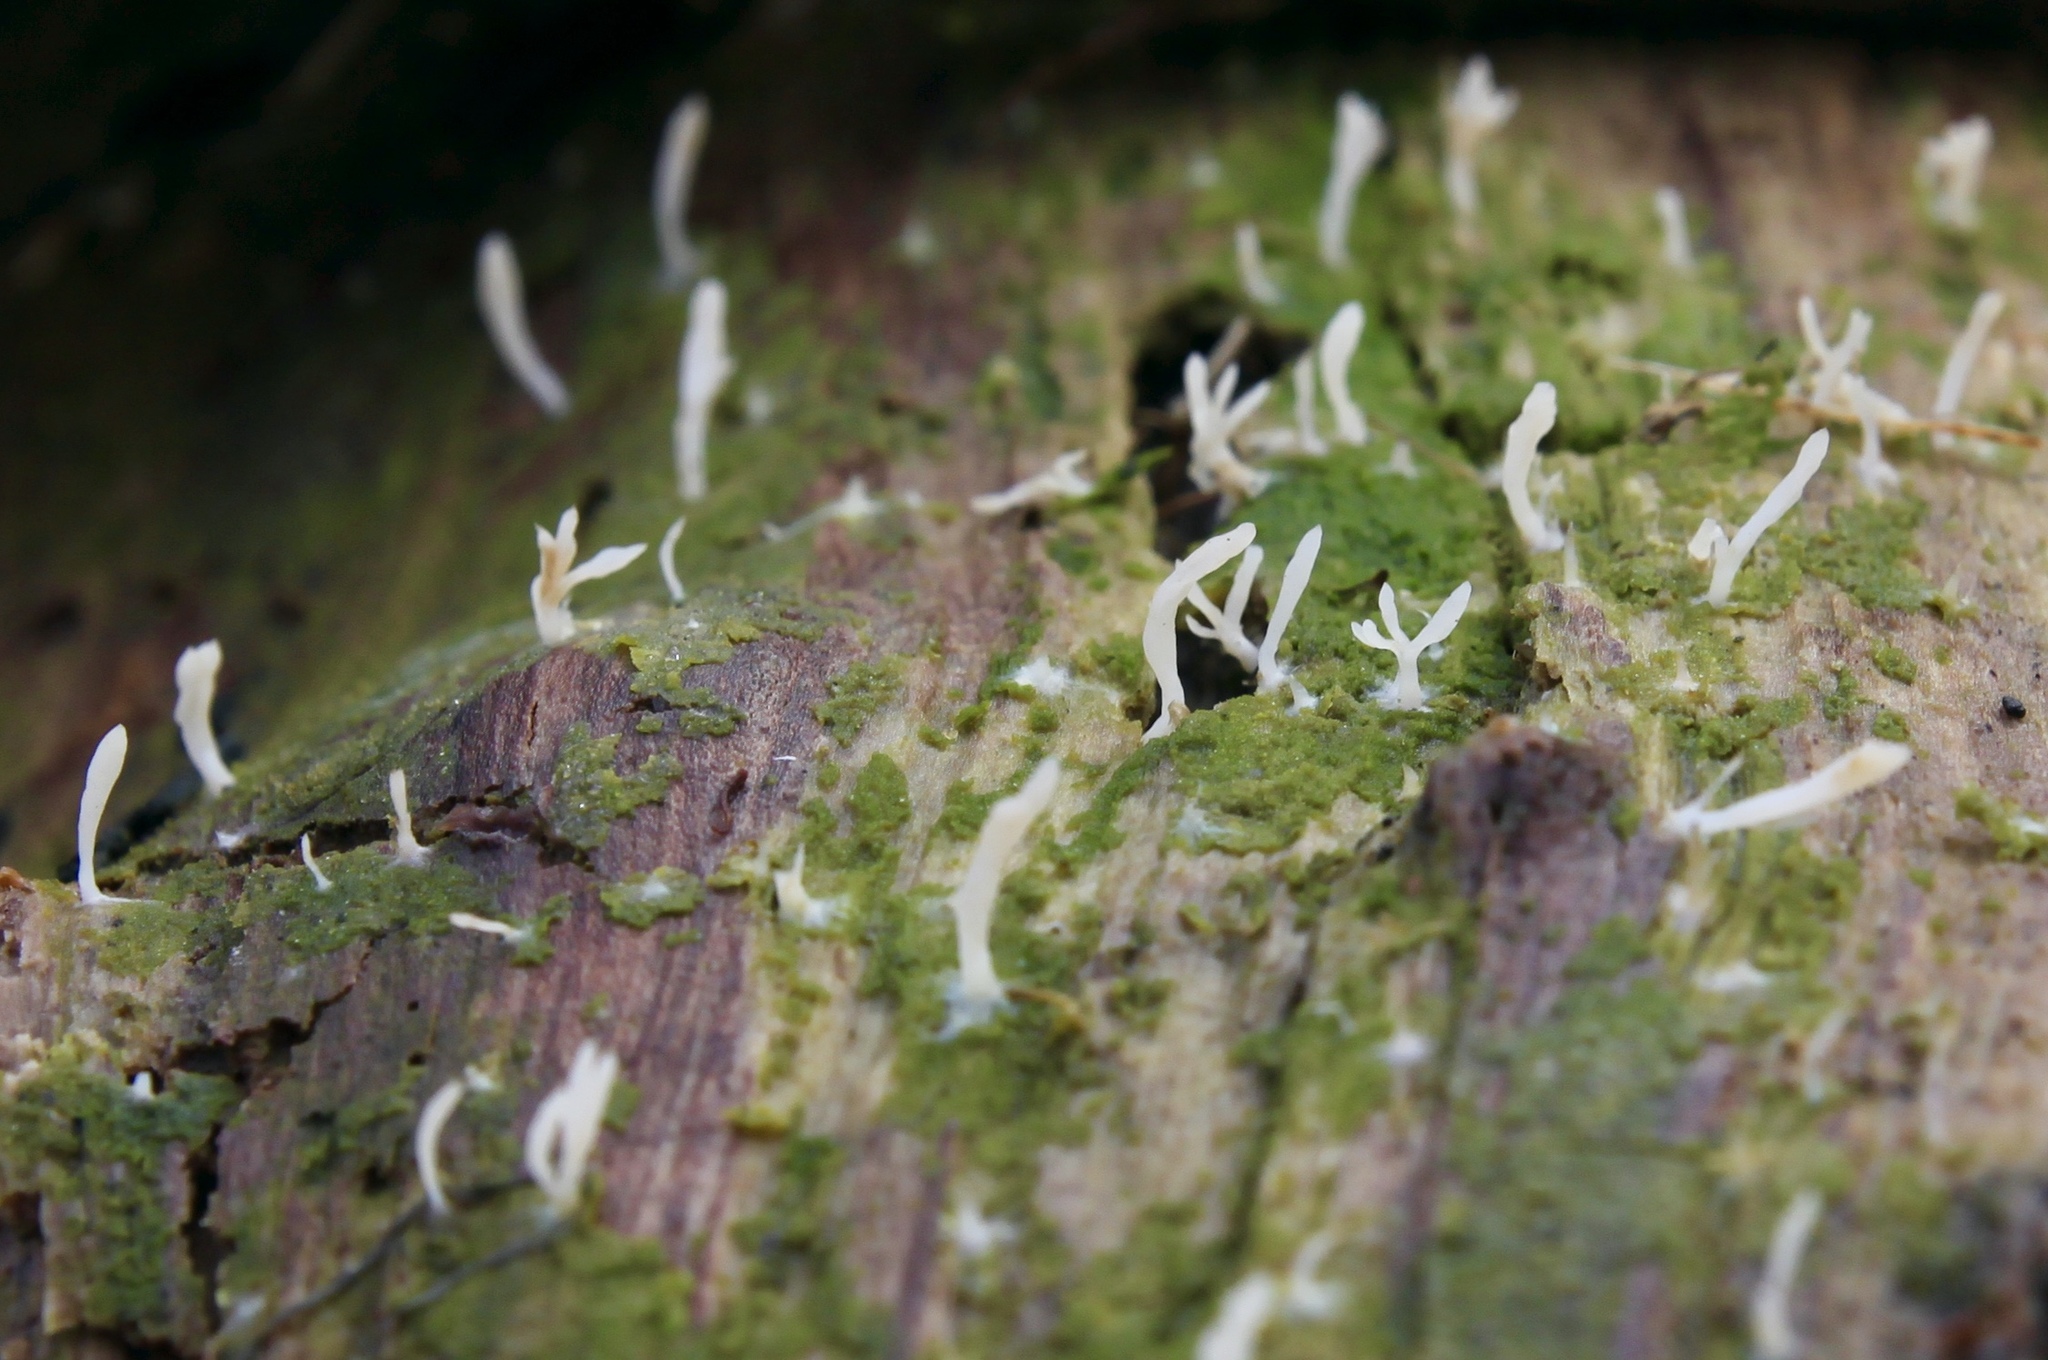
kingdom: Fungi
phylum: Basidiomycota
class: Agaricomycetes
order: Cantharellales
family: Hydnaceae
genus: Multiclavula
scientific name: Multiclavula mucida
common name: White green-algae coral
